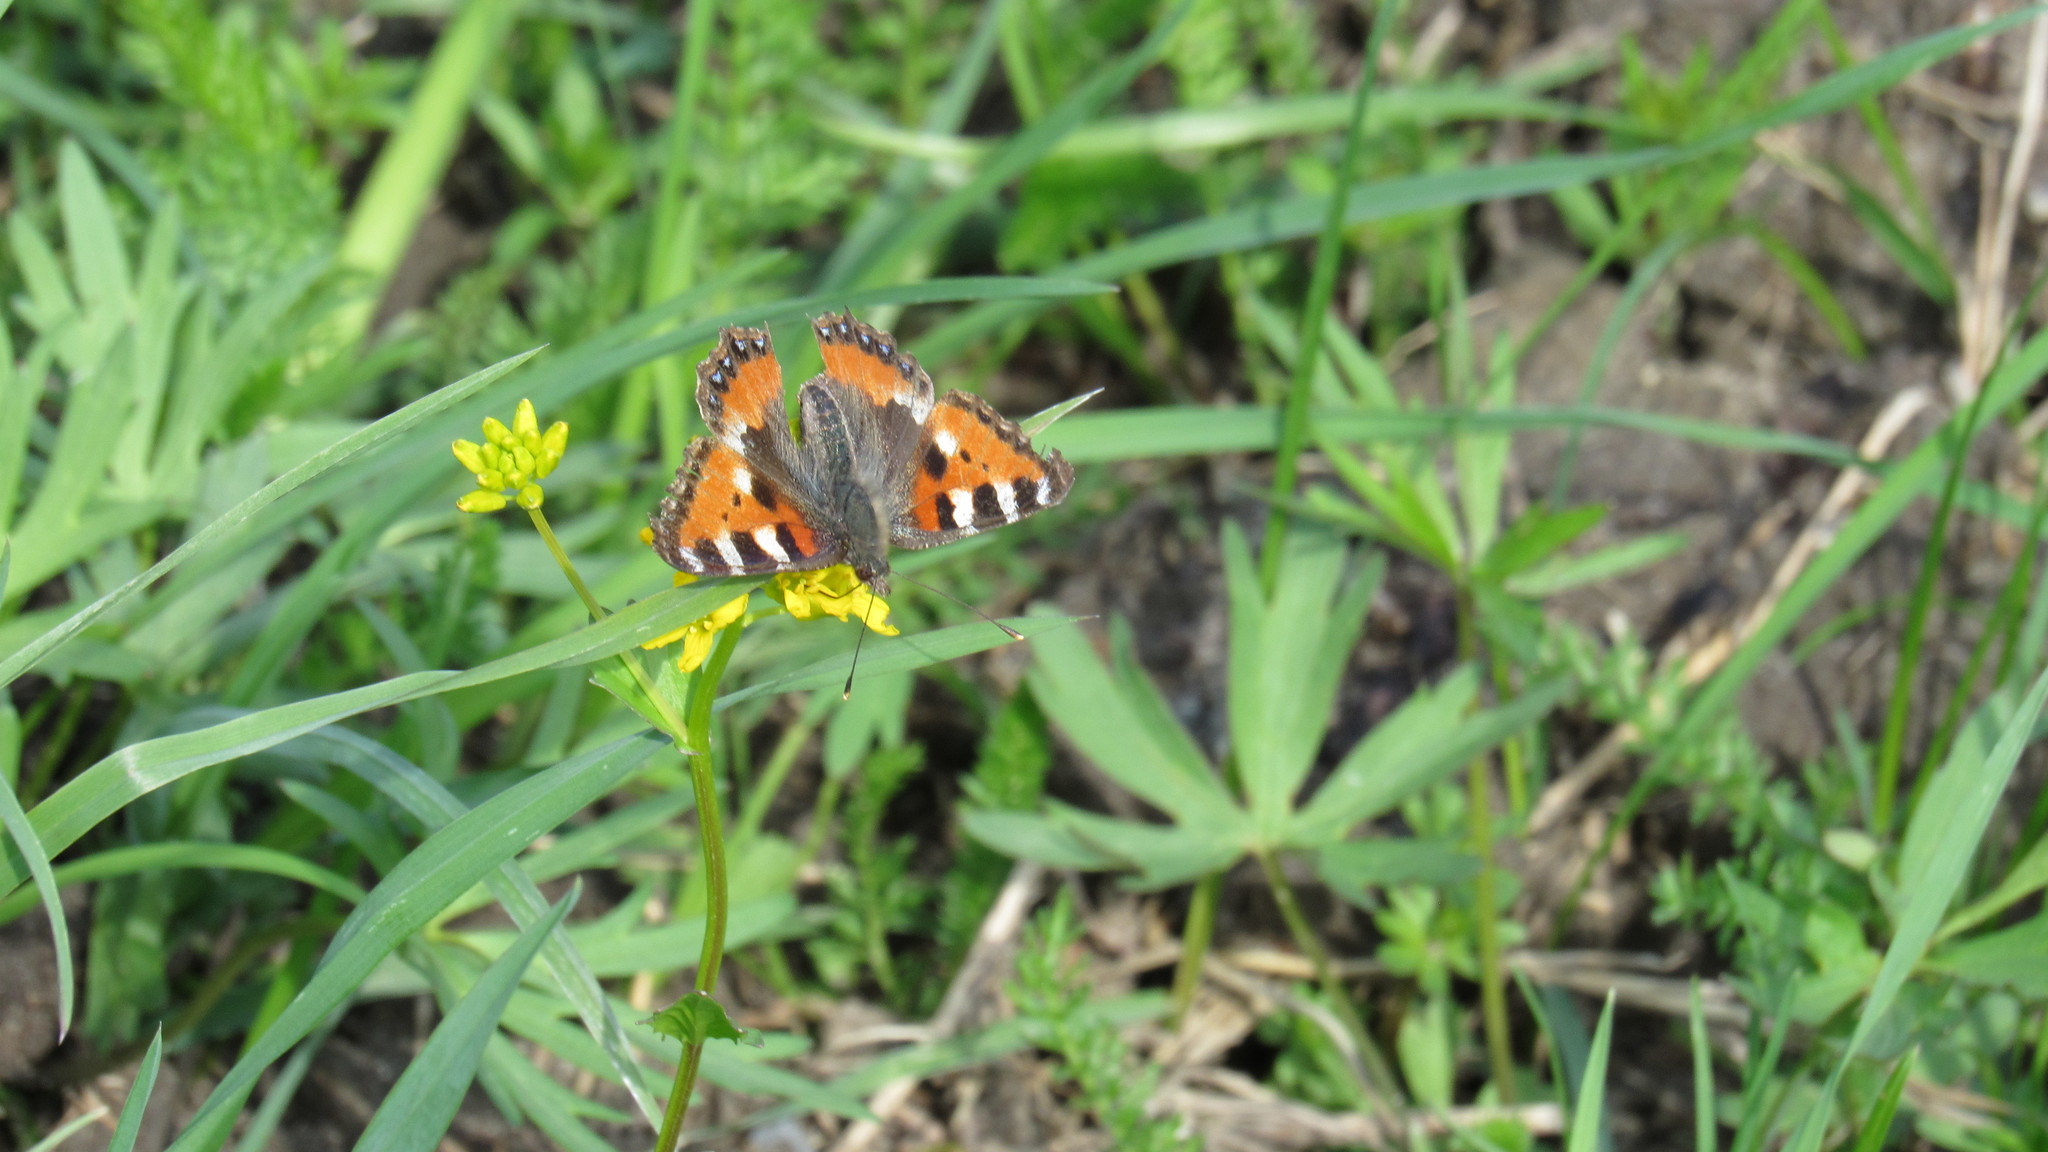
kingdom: Animalia
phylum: Arthropoda
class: Insecta
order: Lepidoptera
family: Nymphalidae
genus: Aglais
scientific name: Aglais urticae
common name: Small tortoiseshell
